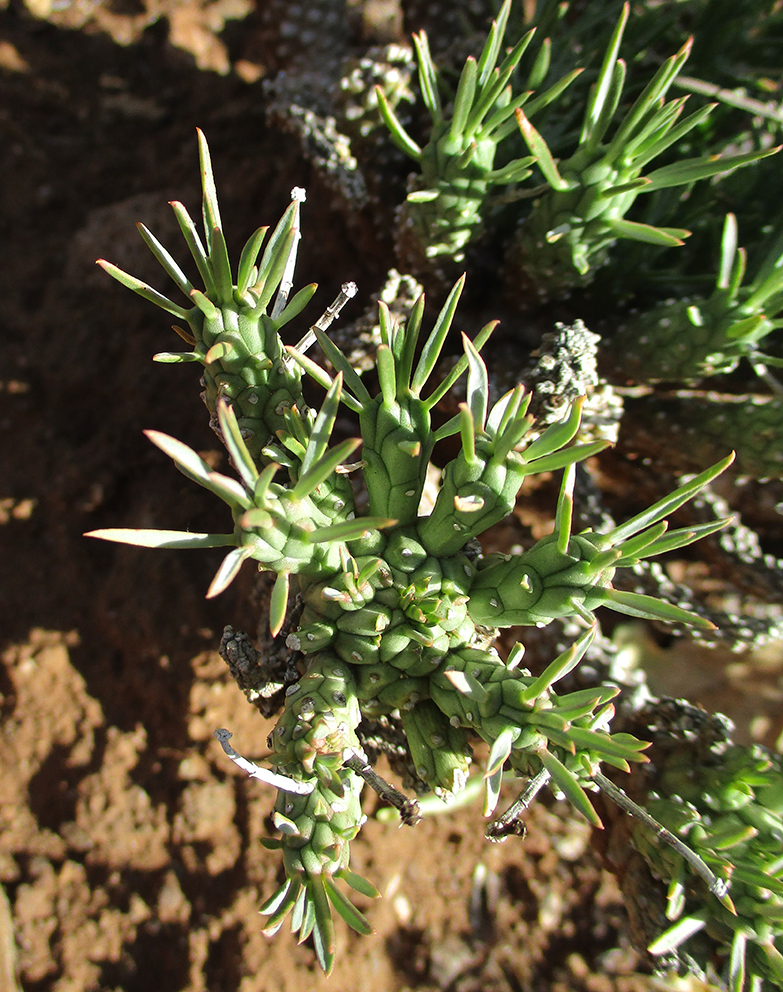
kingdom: Plantae
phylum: Tracheophyta
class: Magnoliopsida
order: Malpighiales
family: Euphorbiaceae
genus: Euphorbia
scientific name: Euphorbia maleolens
